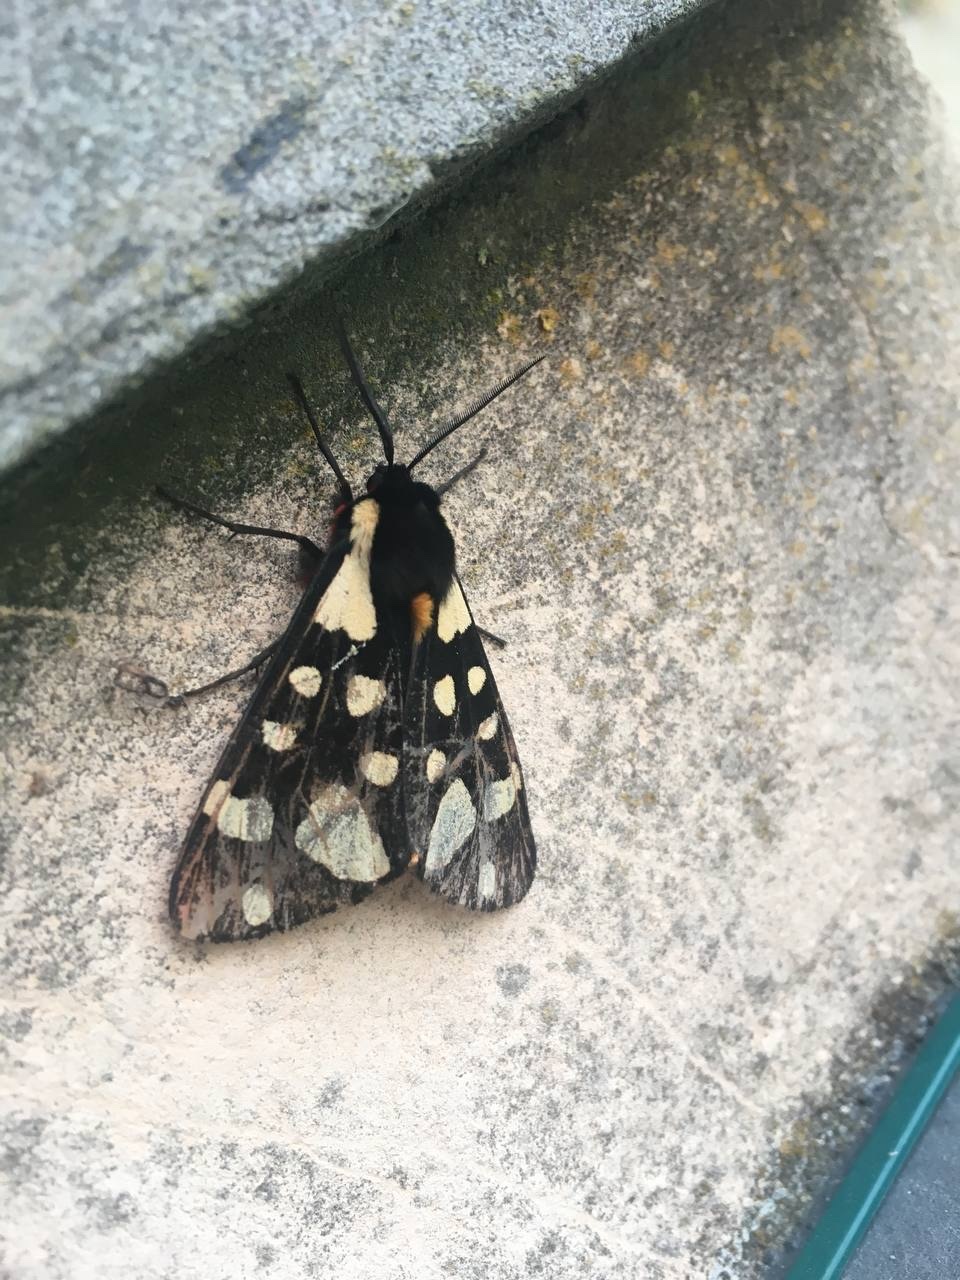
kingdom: Animalia
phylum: Arthropoda
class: Insecta
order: Lepidoptera
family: Erebidae
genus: Epicallia
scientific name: Epicallia villica
